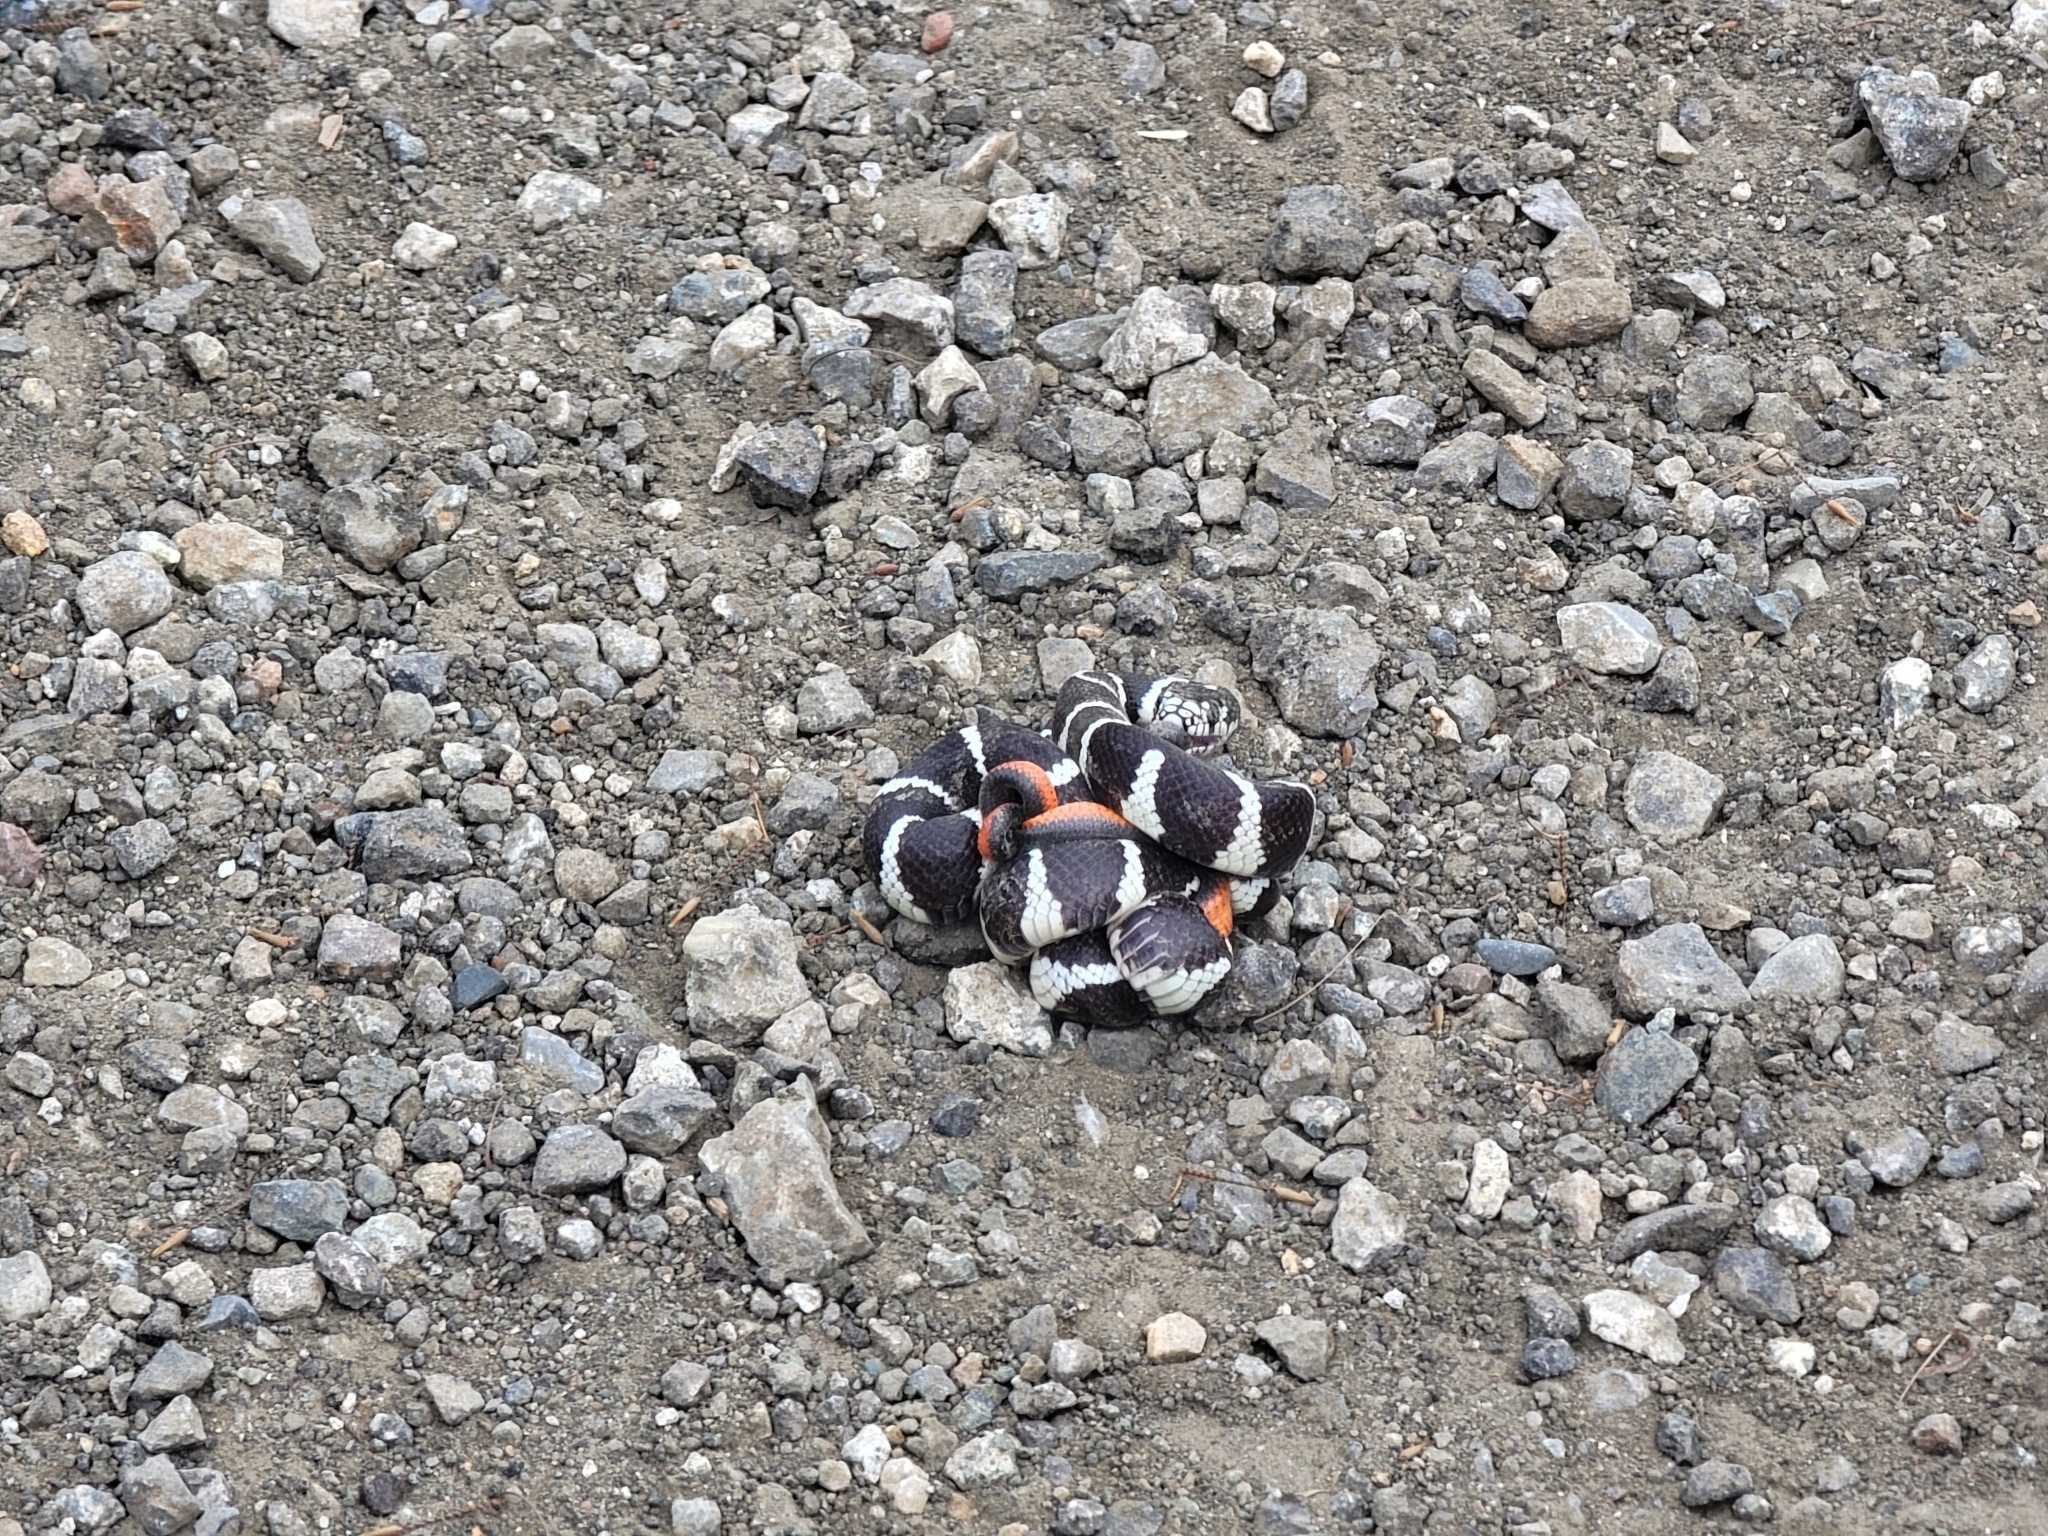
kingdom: Animalia
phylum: Chordata
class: Squamata
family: Colubridae
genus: Diadophis
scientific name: Diadophis punctatus
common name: Ringneck snake
